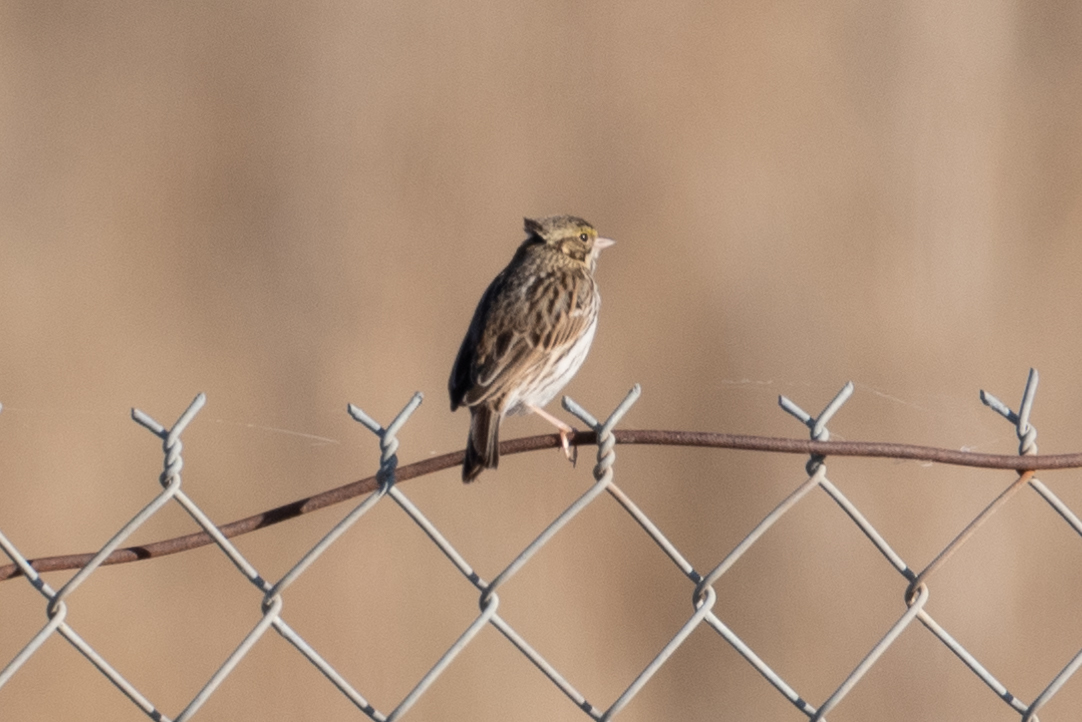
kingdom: Animalia
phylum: Chordata
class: Aves
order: Passeriformes
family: Passerellidae
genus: Passerculus
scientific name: Passerculus sandwichensis
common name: Savannah sparrow
